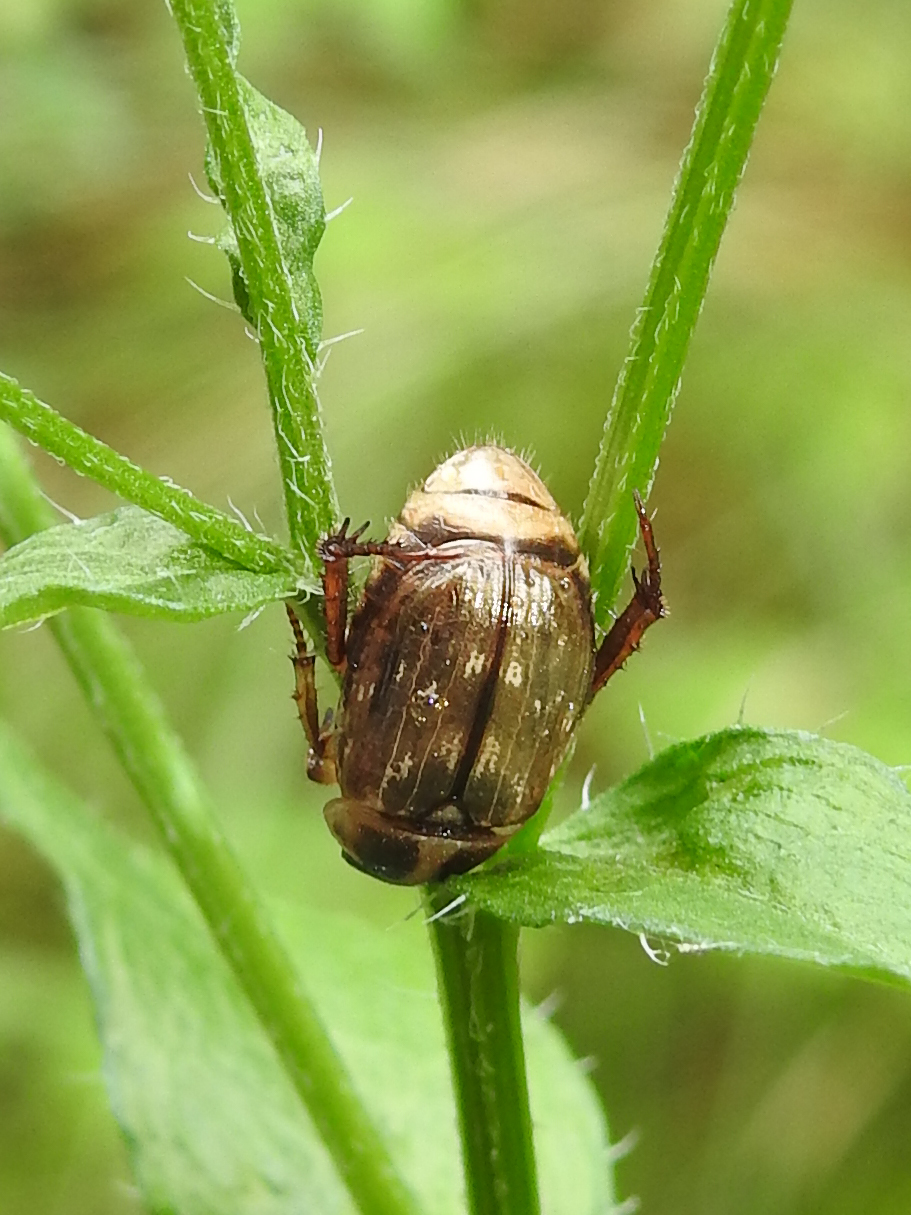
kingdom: Animalia
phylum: Arthropoda
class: Insecta
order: Coleoptera
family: Scarabaeidae
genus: Exomala
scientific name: Exomala orientalis
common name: Oriental beetle
